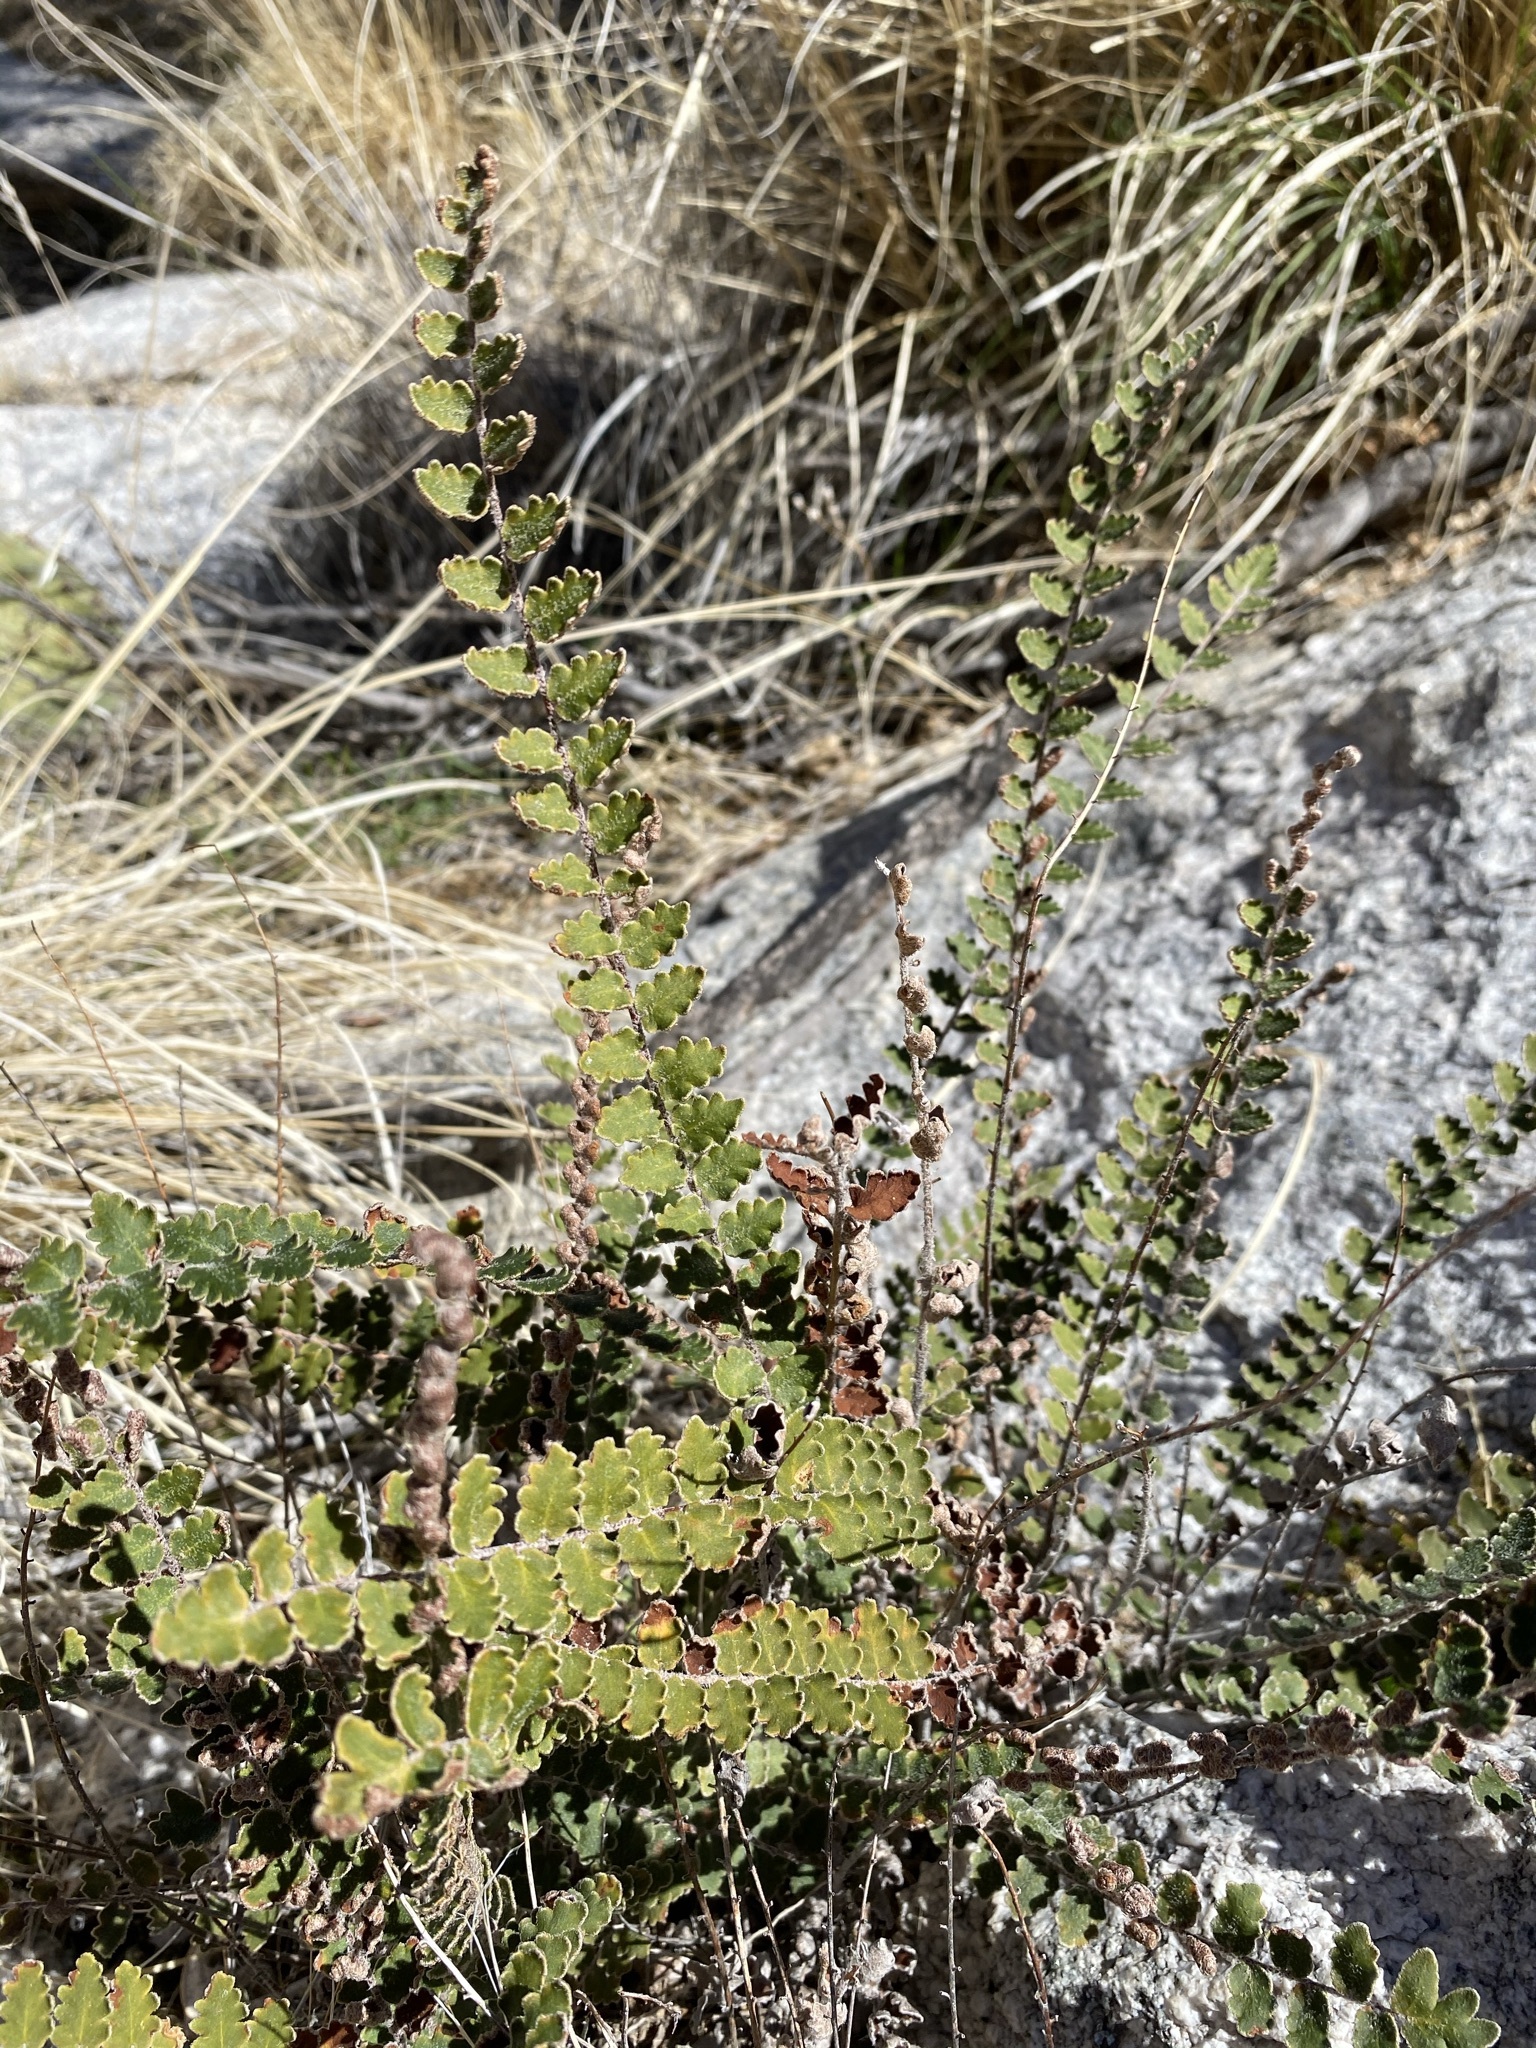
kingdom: Plantae
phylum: Tracheophyta
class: Polypodiopsida
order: Polypodiales
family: Pteridaceae
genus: Astrolepis
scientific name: Astrolepis sinuata
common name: Wavy scaly cloakfern
